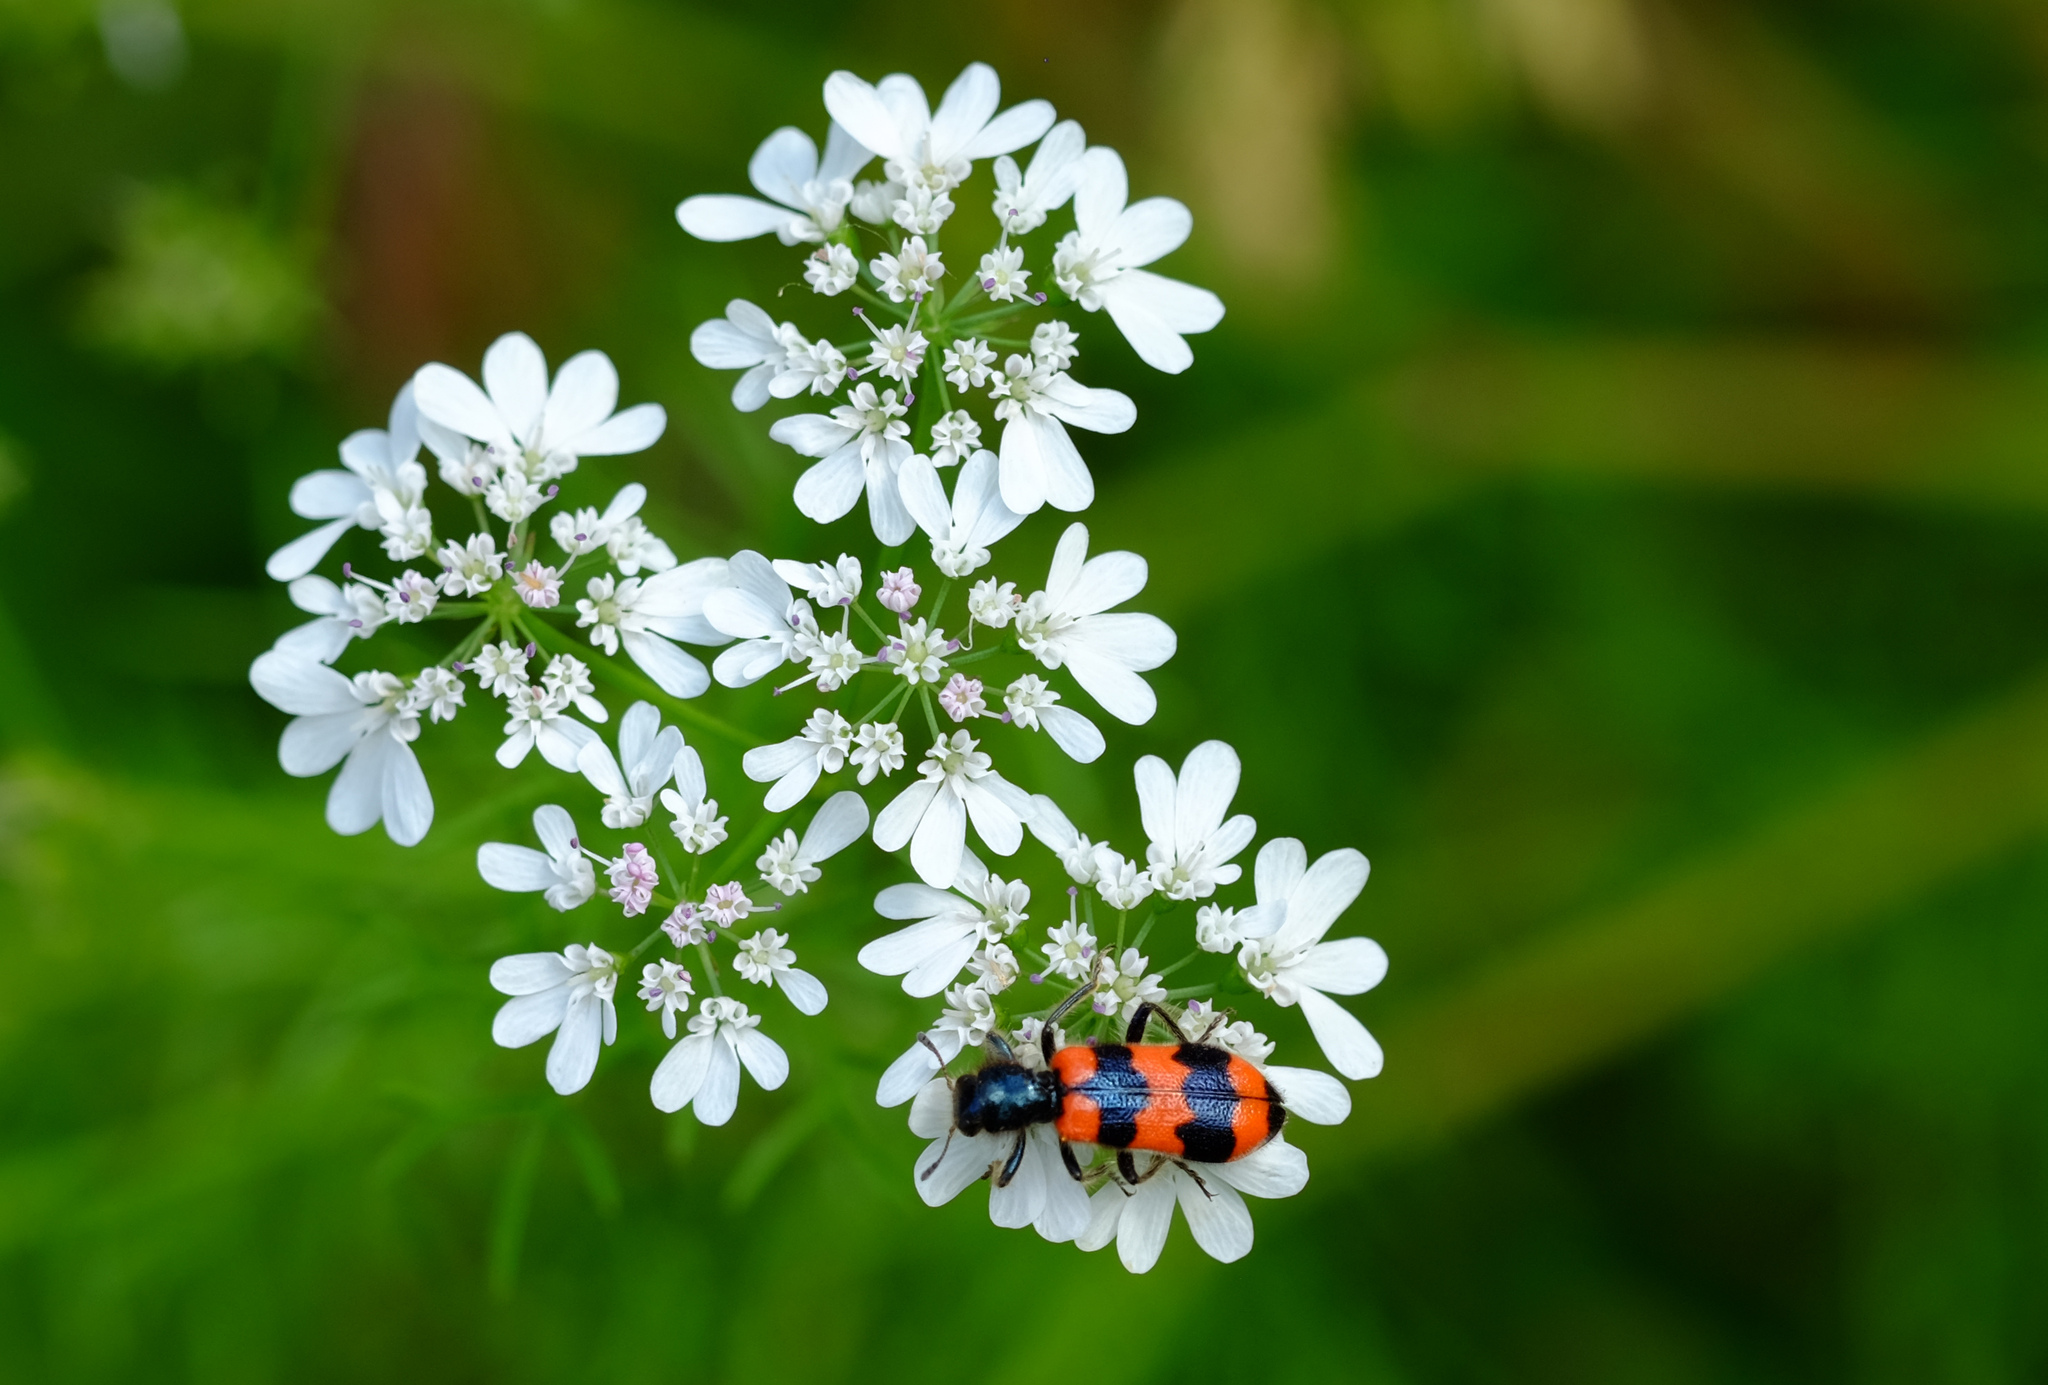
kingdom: Animalia
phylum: Arthropoda
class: Insecta
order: Coleoptera
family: Cleridae
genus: Trichodes
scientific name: Trichodes apiarius
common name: Bee-eating beetle
